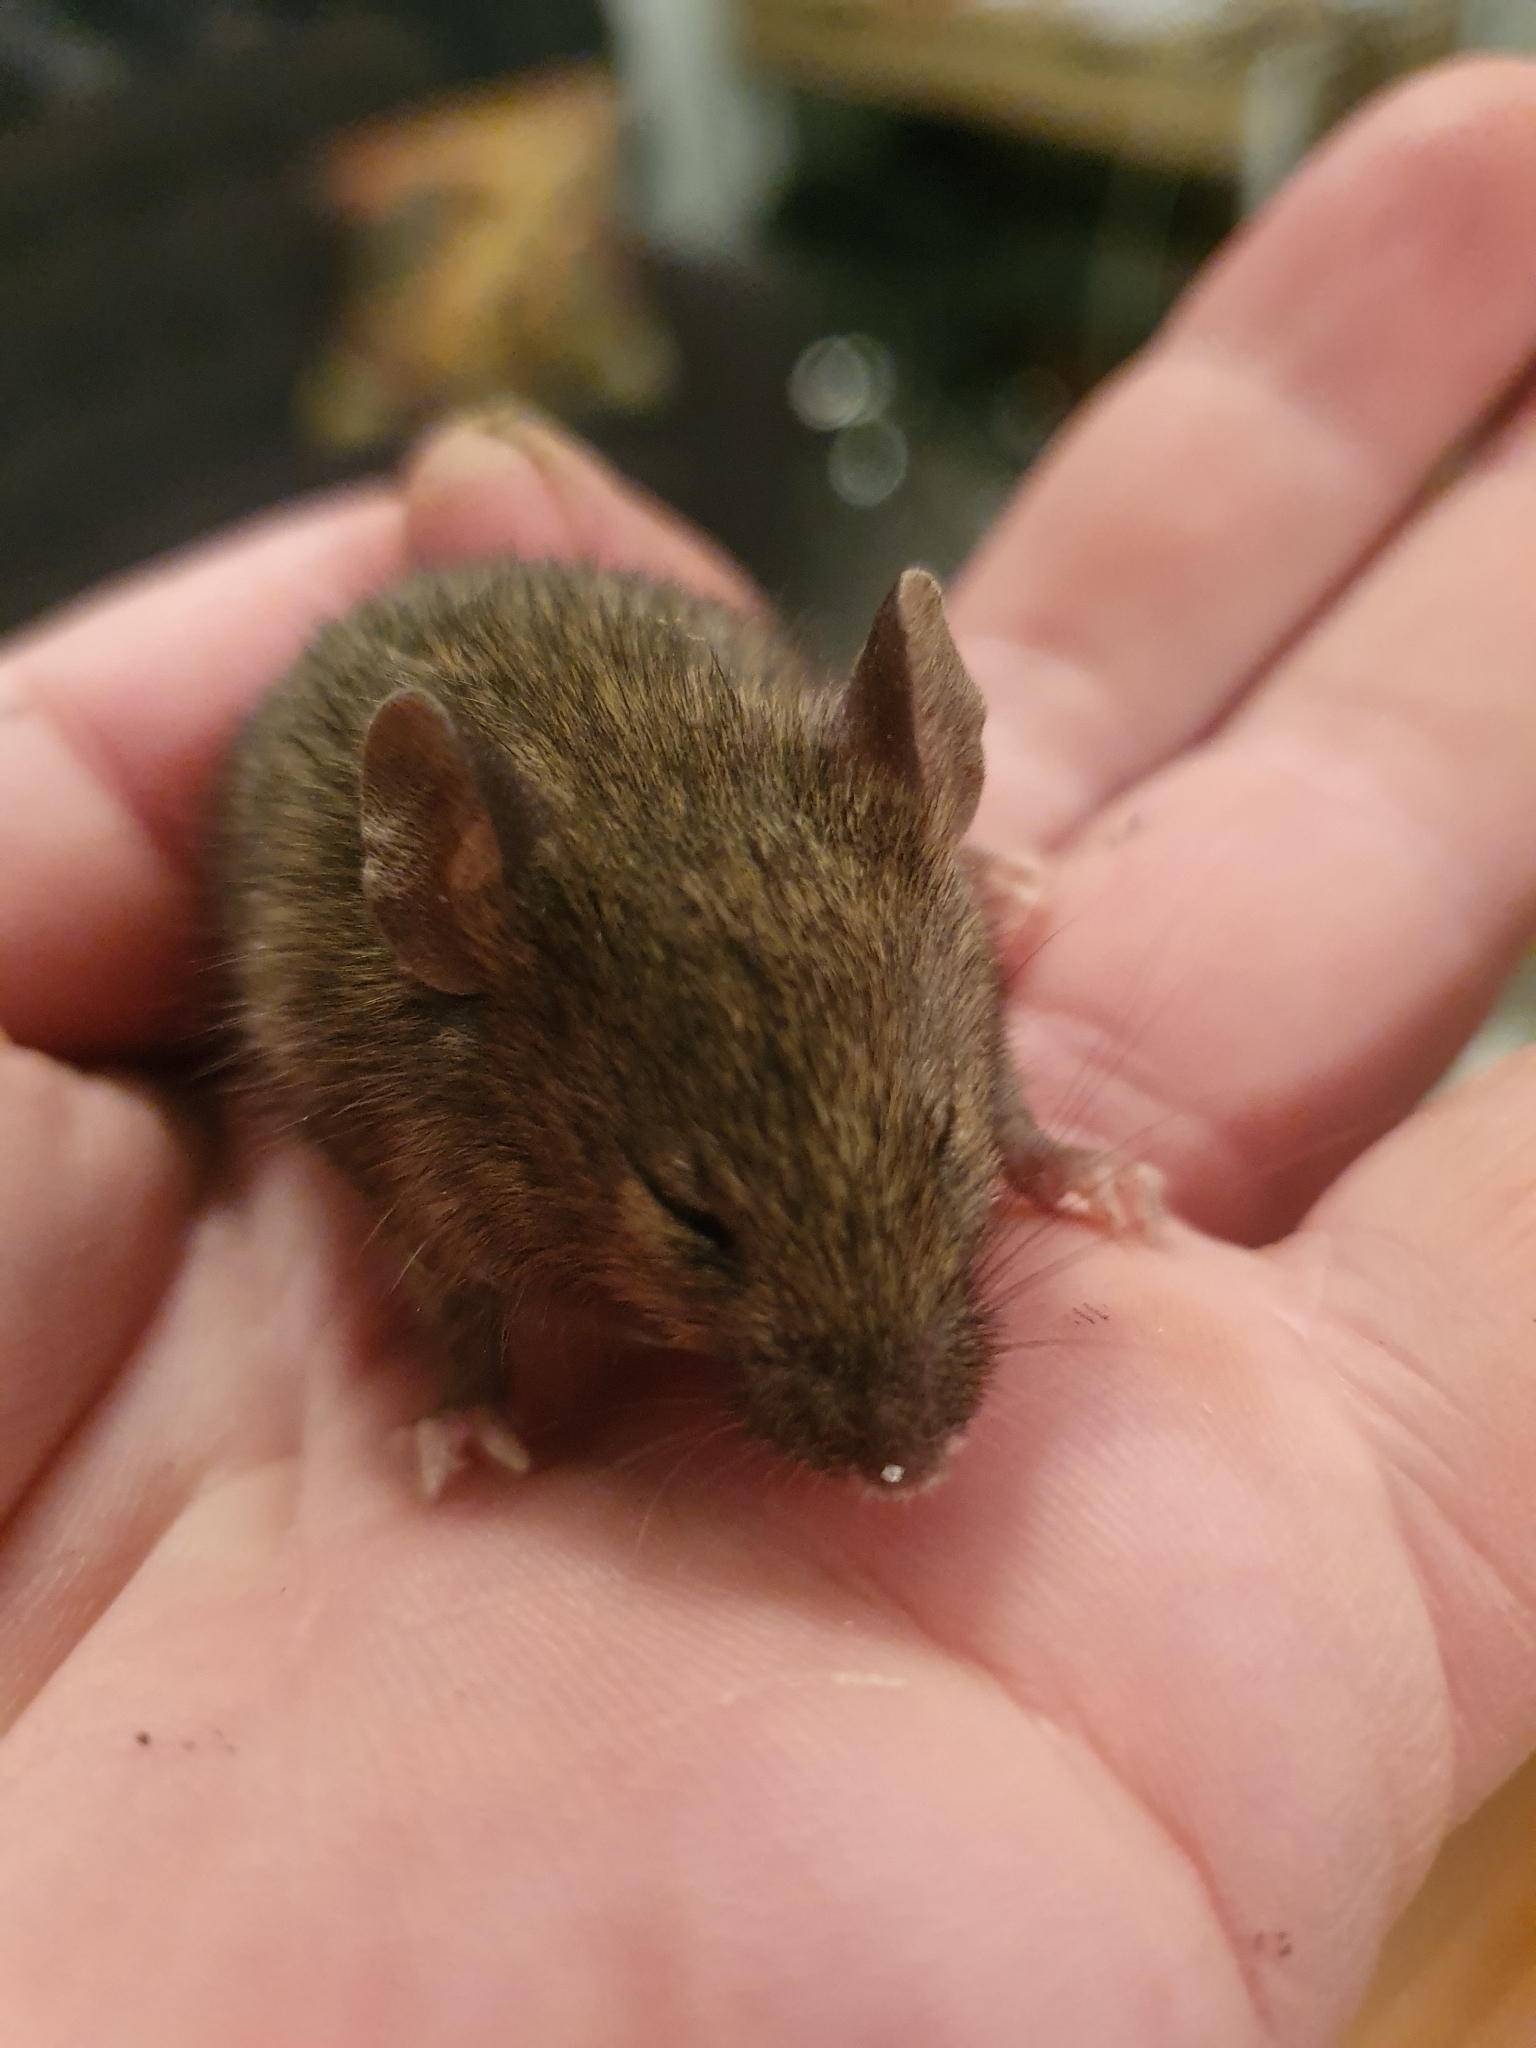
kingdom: Animalia
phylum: Chordata
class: Mammalia
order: Rodentia
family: Muridae
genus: Mus
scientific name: Mus musculus
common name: House mouse
